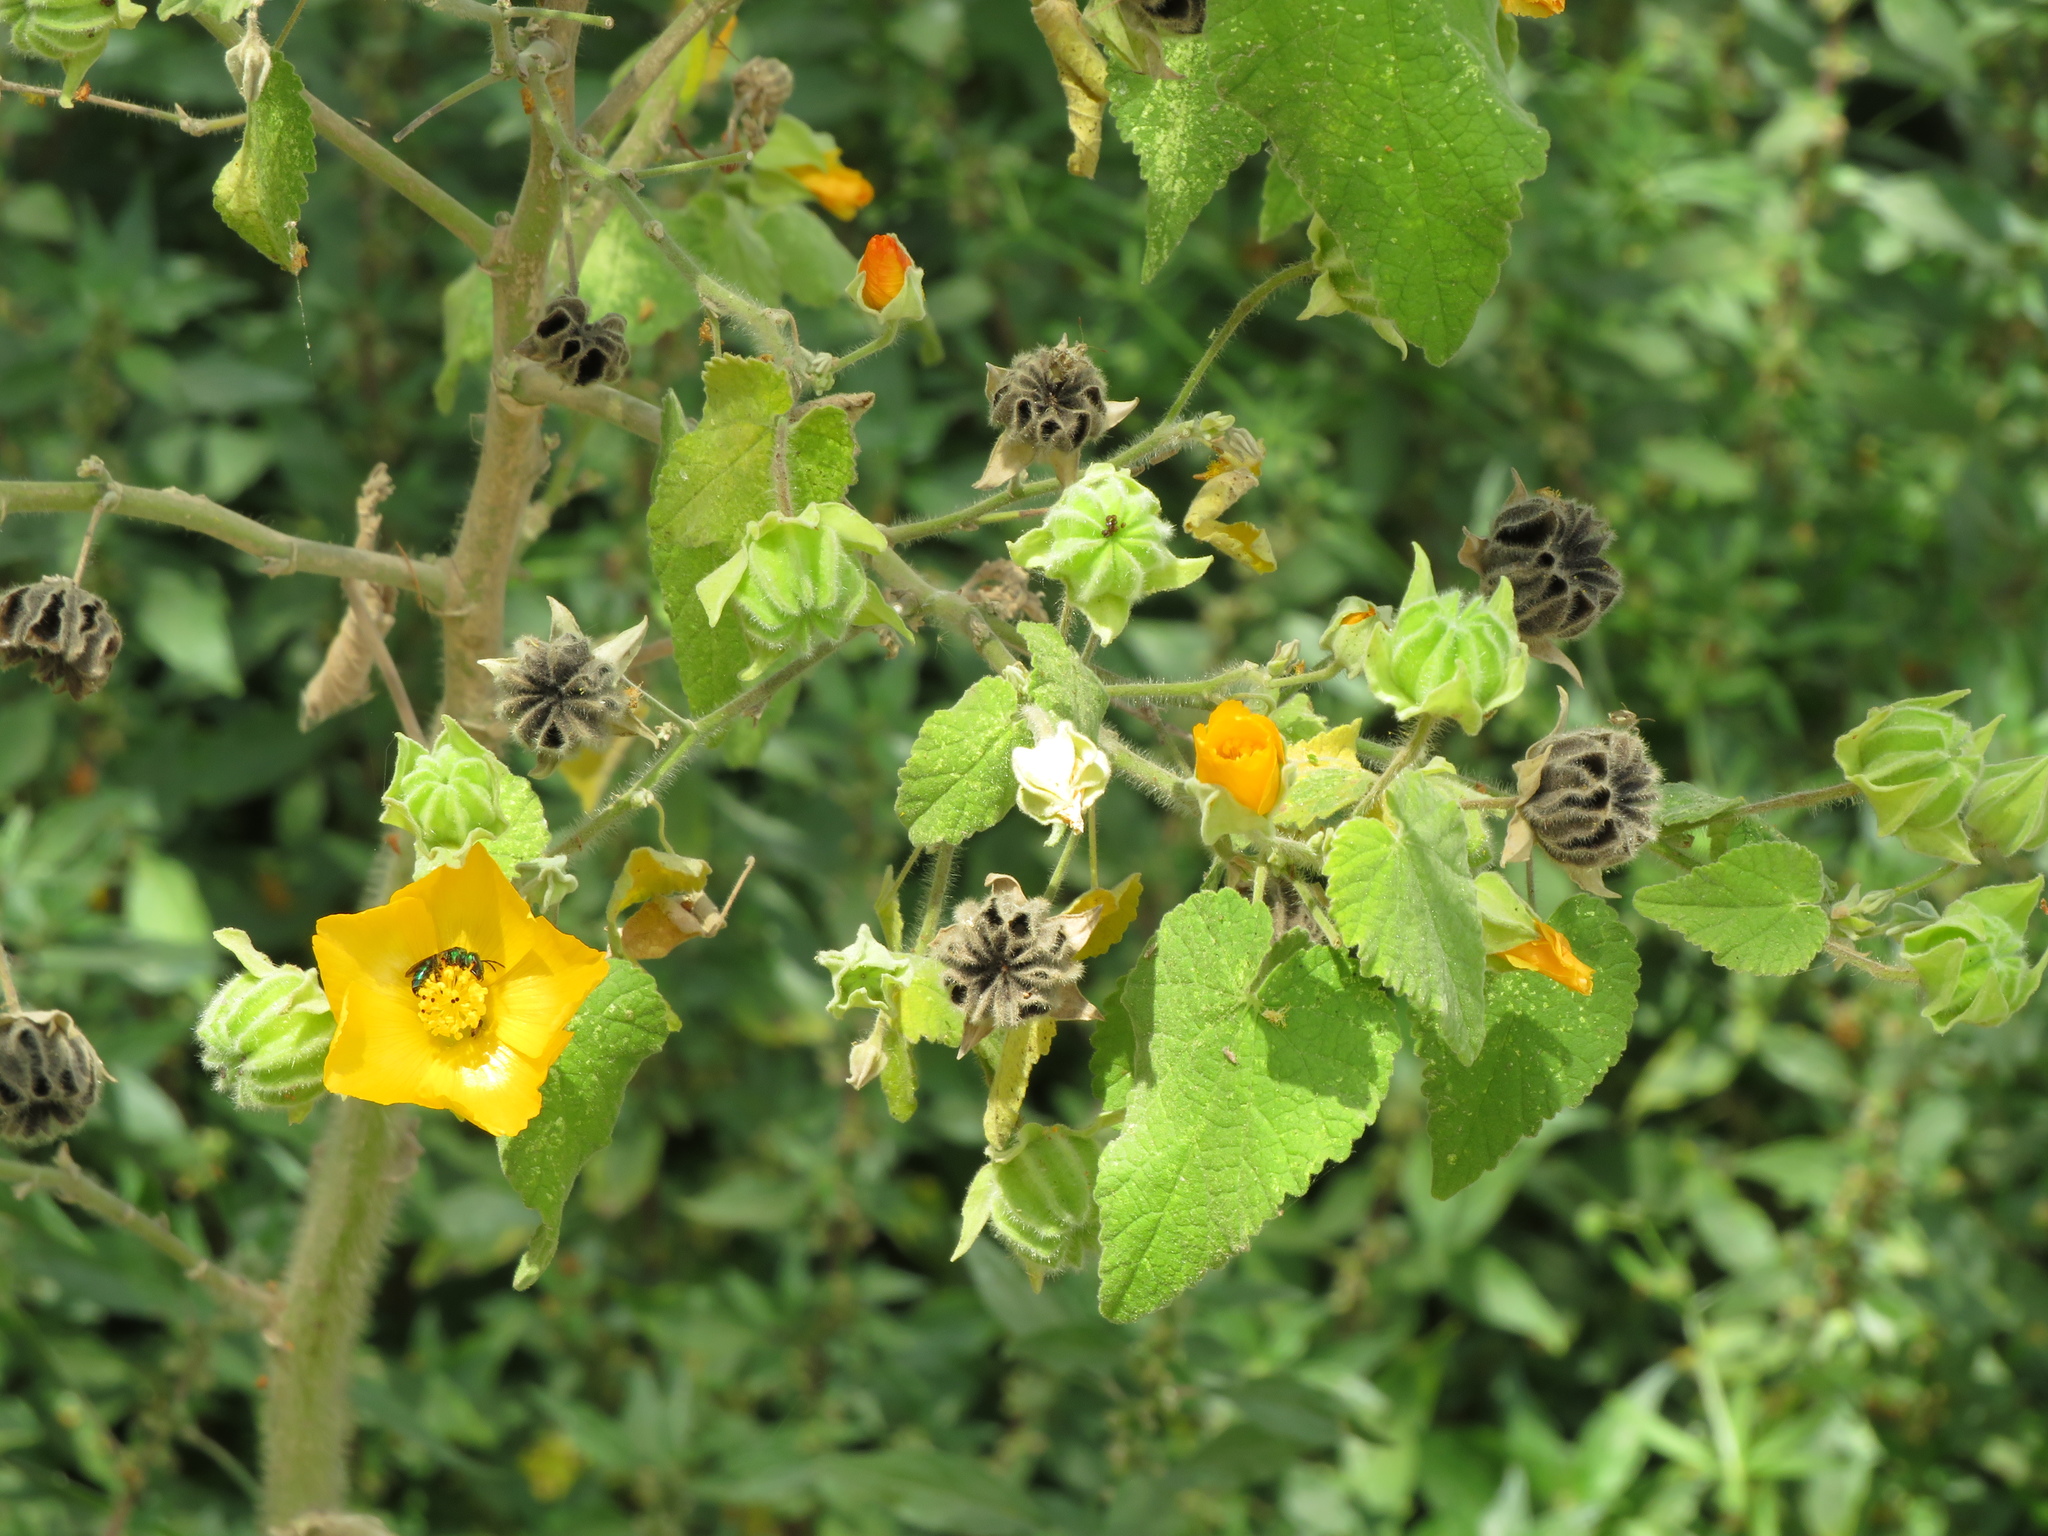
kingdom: Plantae
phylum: Tracheophyta
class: Magnoliopsida
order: Malvales
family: Malvaceae
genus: Abutilon
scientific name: Abutilon grandifolium
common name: Hairy abutilon
